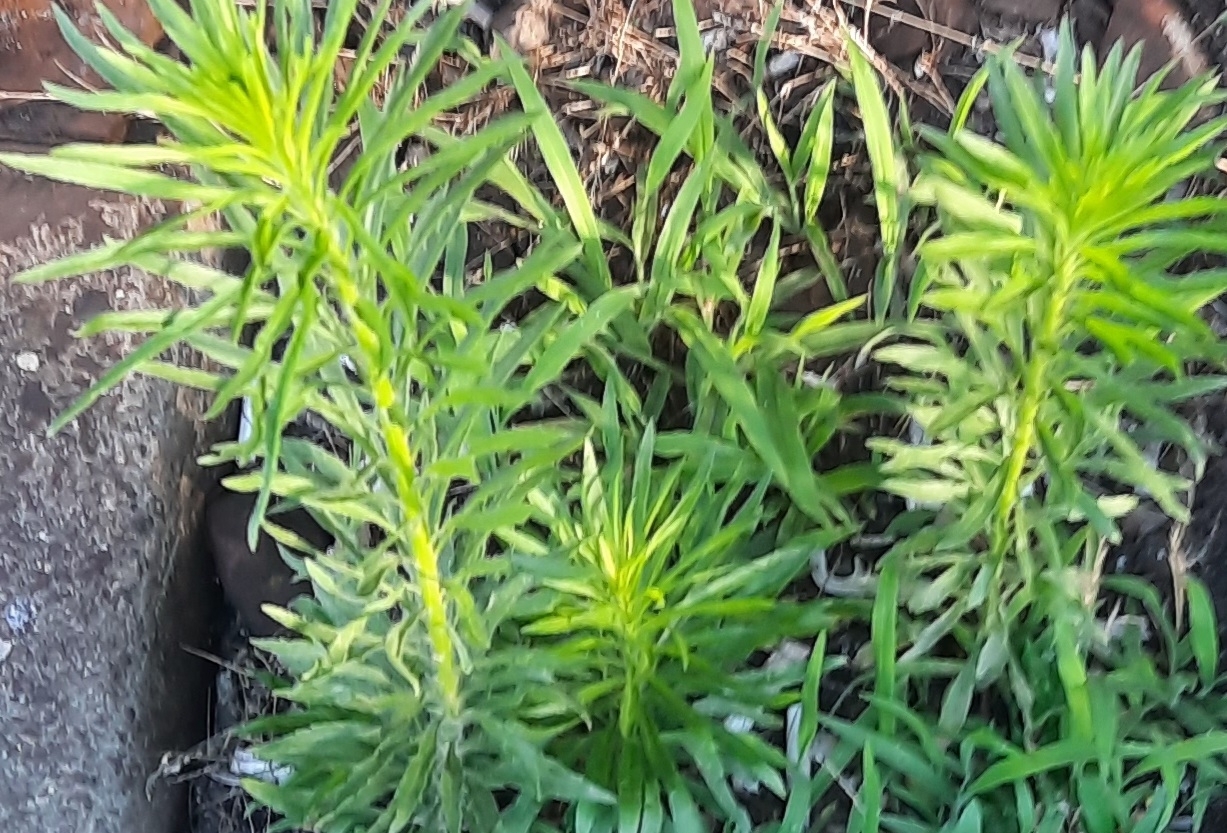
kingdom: Plantae
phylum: Tracheophyta
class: Magnoliopsida
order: Asterales
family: Asteraceae
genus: Erigeron
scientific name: Erigeron canadensis
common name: Canadian fleabane
